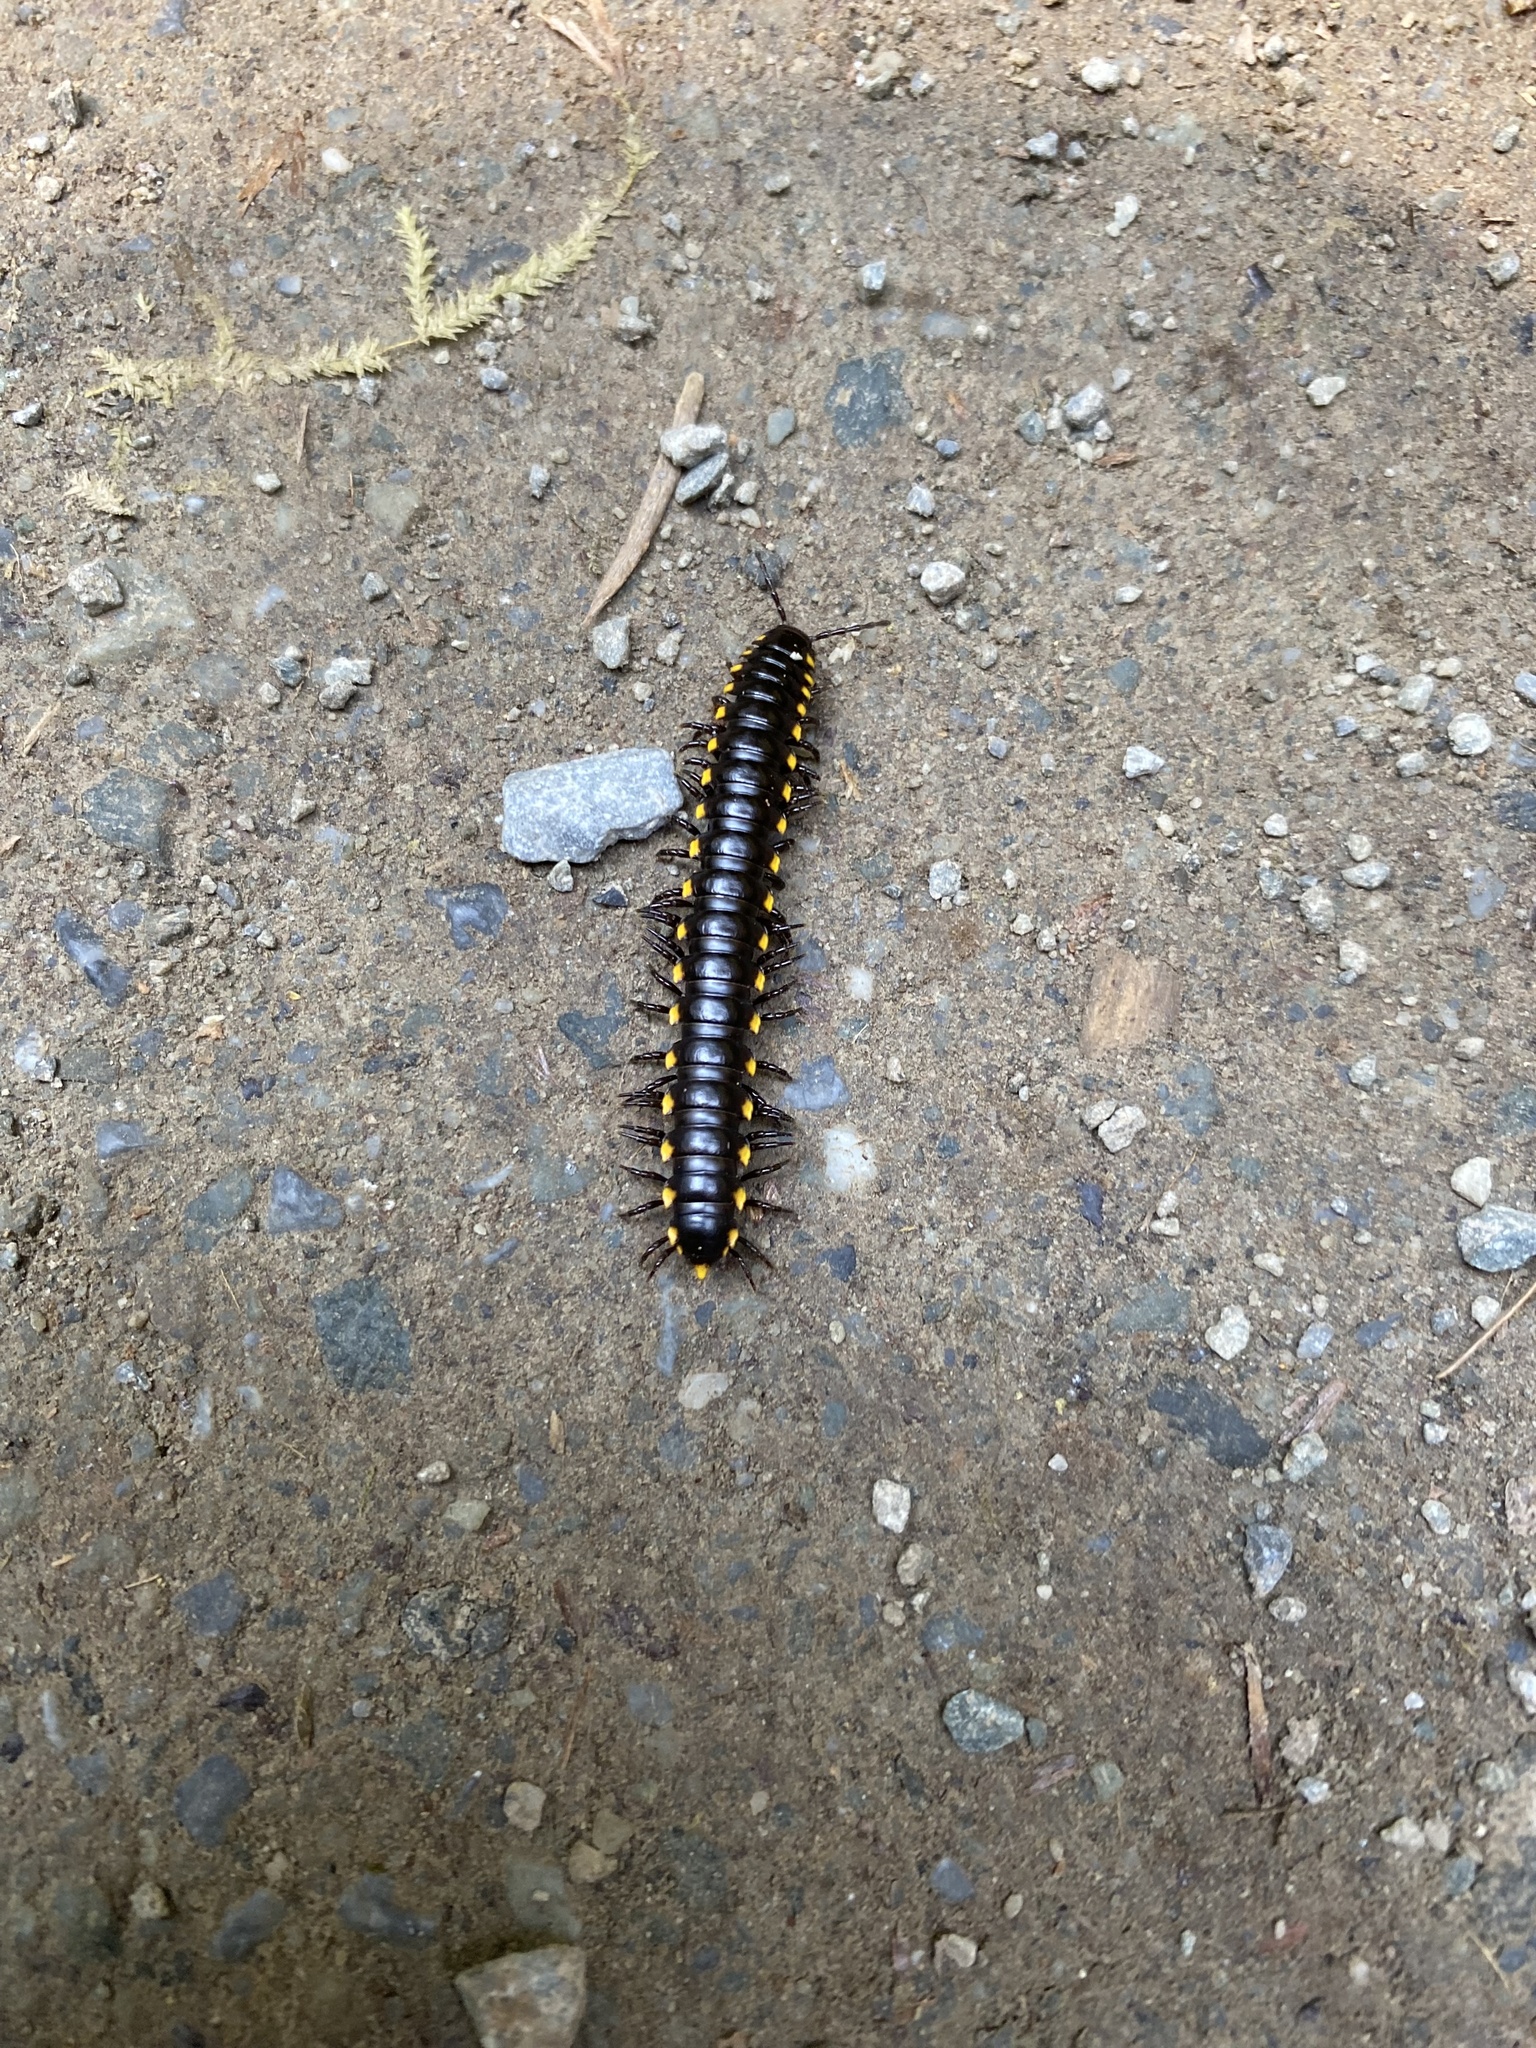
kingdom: Animalia
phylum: Arthropoda
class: Diplopoda
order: Polydesmida
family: Xystodesmidae
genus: Harpaphe
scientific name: Harpaphe haydeniana
